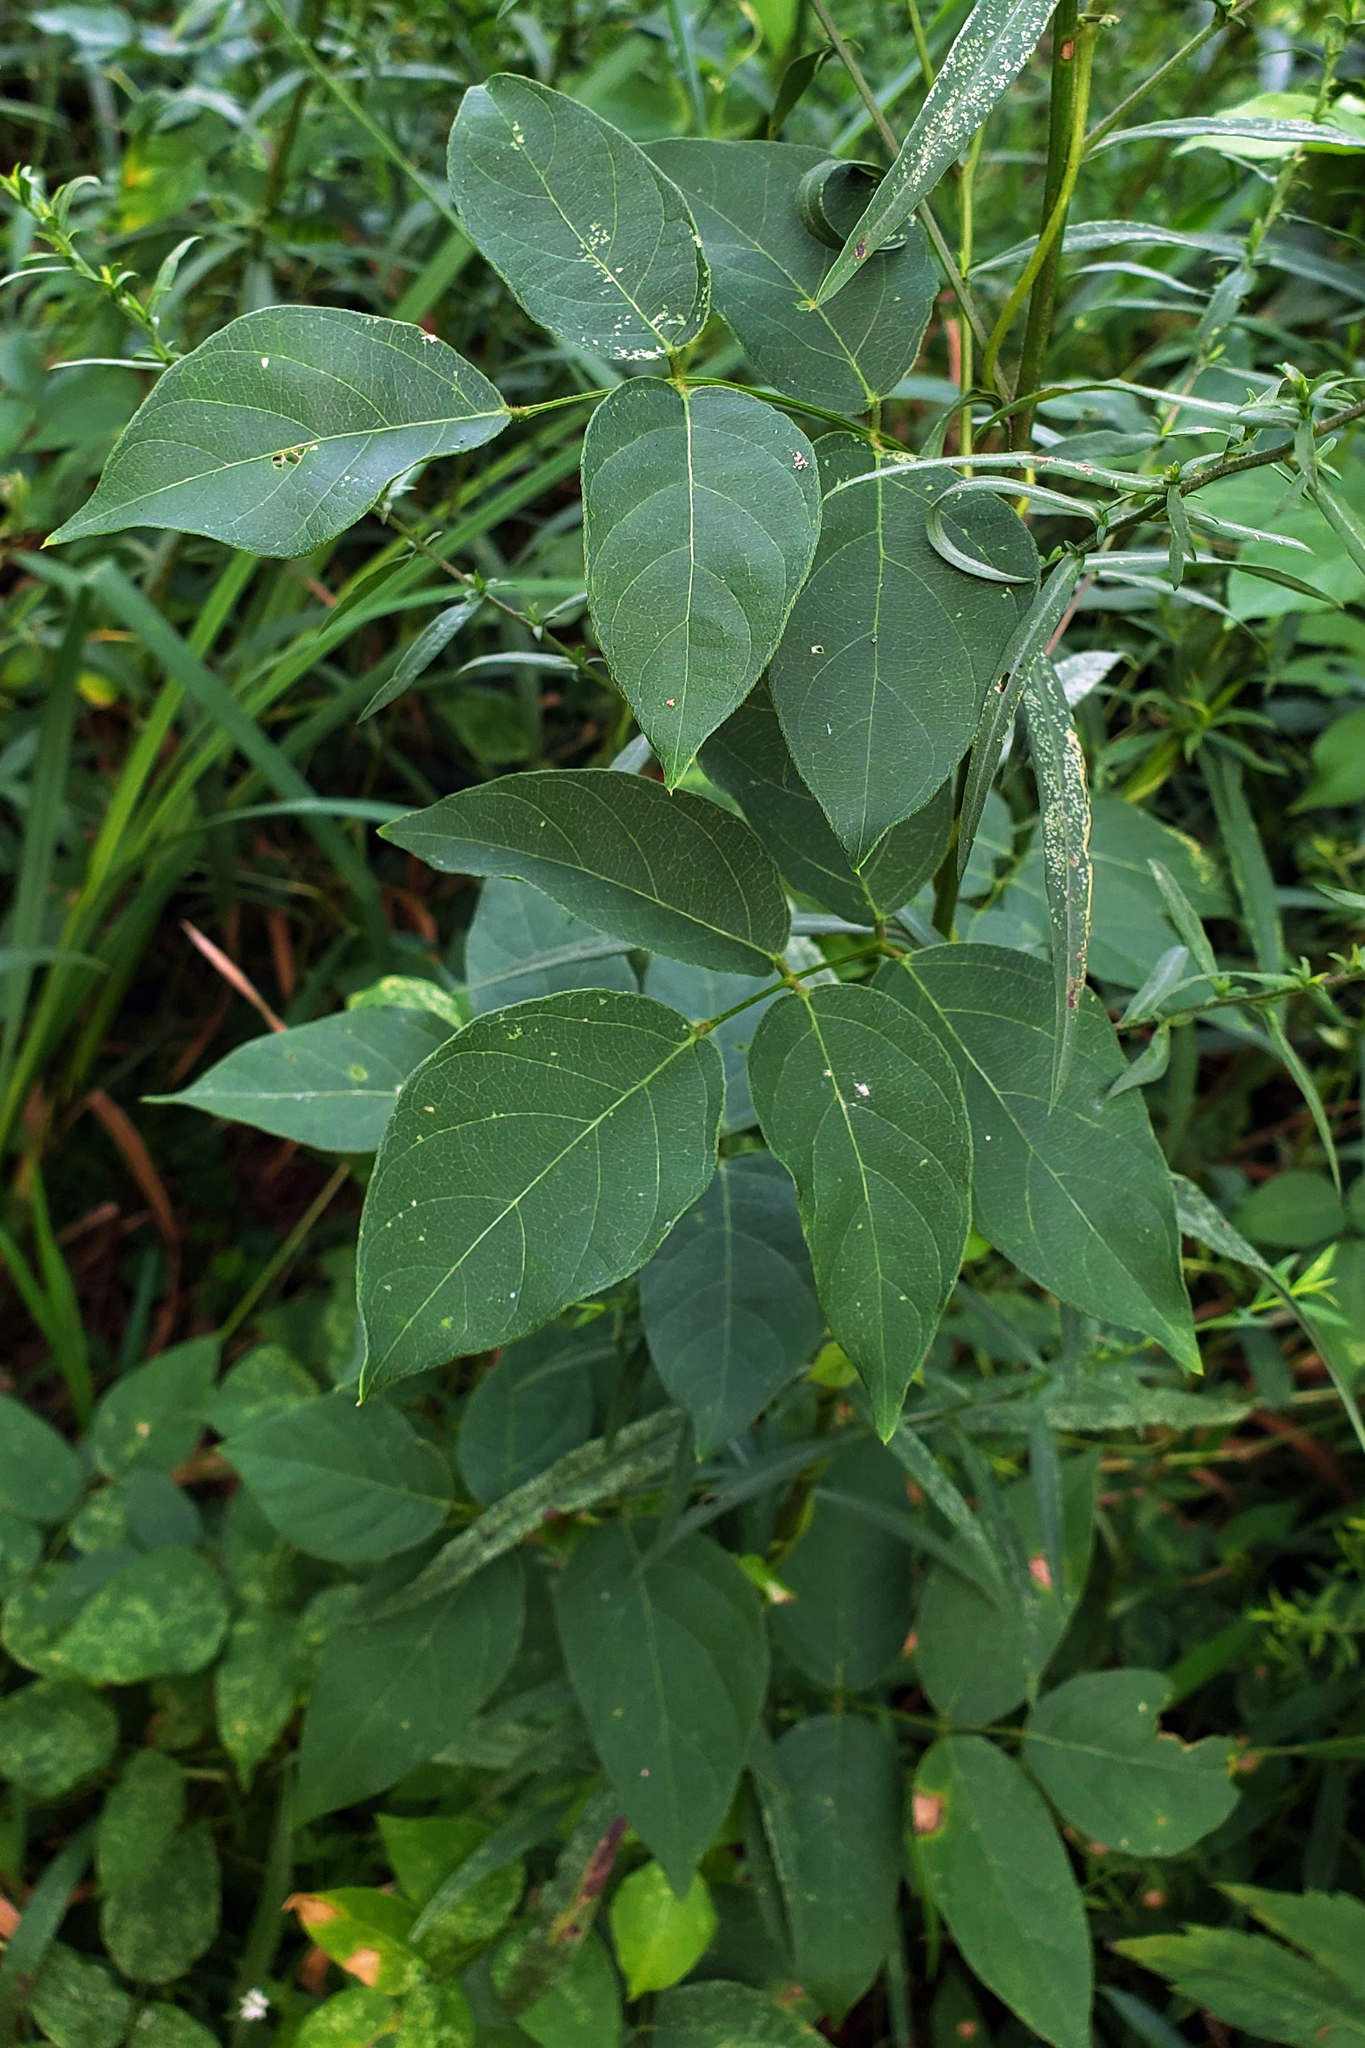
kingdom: Plantae
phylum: Tracheophyta
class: Magnoliopsida
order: Fabales
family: Fabaceae
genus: Apios
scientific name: Apios americana
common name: American potato-bean
